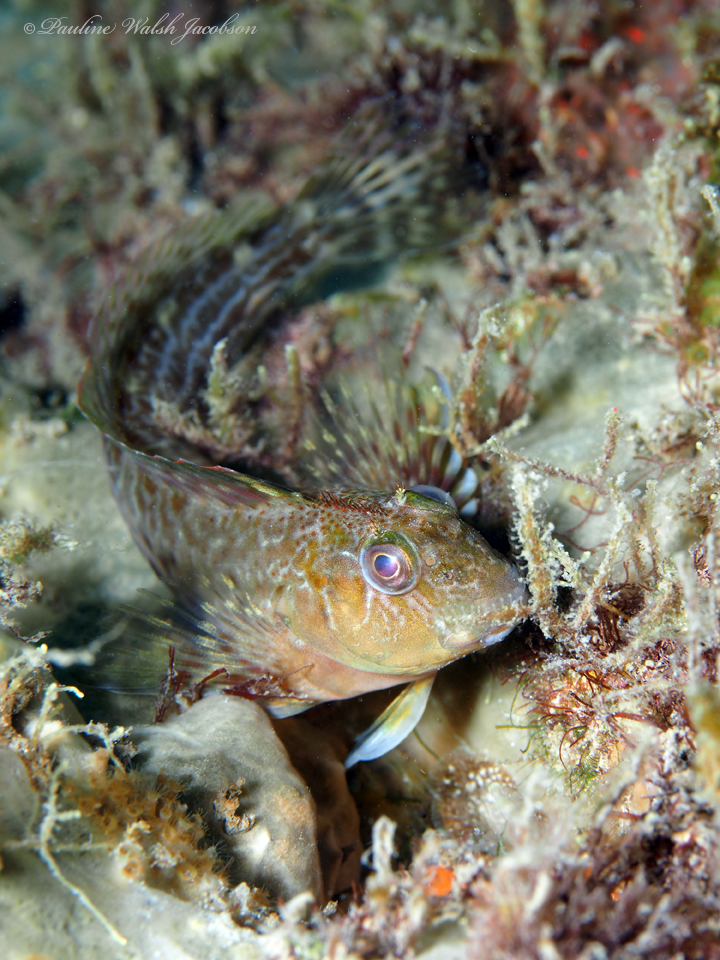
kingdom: Animalia
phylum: Chordata
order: Perciformes
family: Blenniidae
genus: Scartella
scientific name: Scartella cristata
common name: Molly miller
